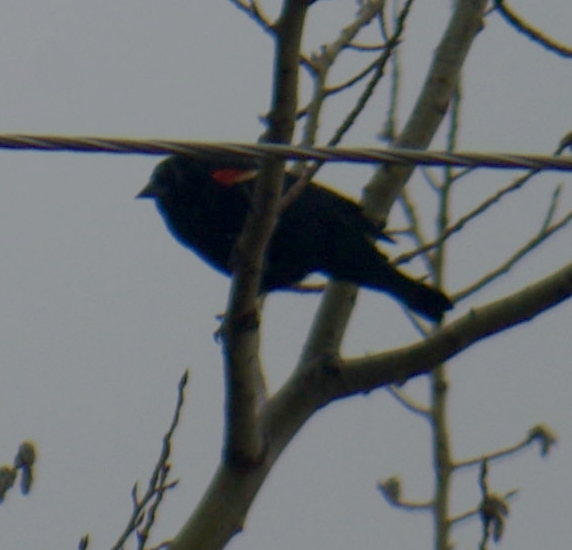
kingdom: Animalia
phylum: Chordata
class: Aves
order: Passeriformes
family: Icteridae
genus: Agelaius
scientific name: Agelaius phoeniceus
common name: Red-winged blackbird
